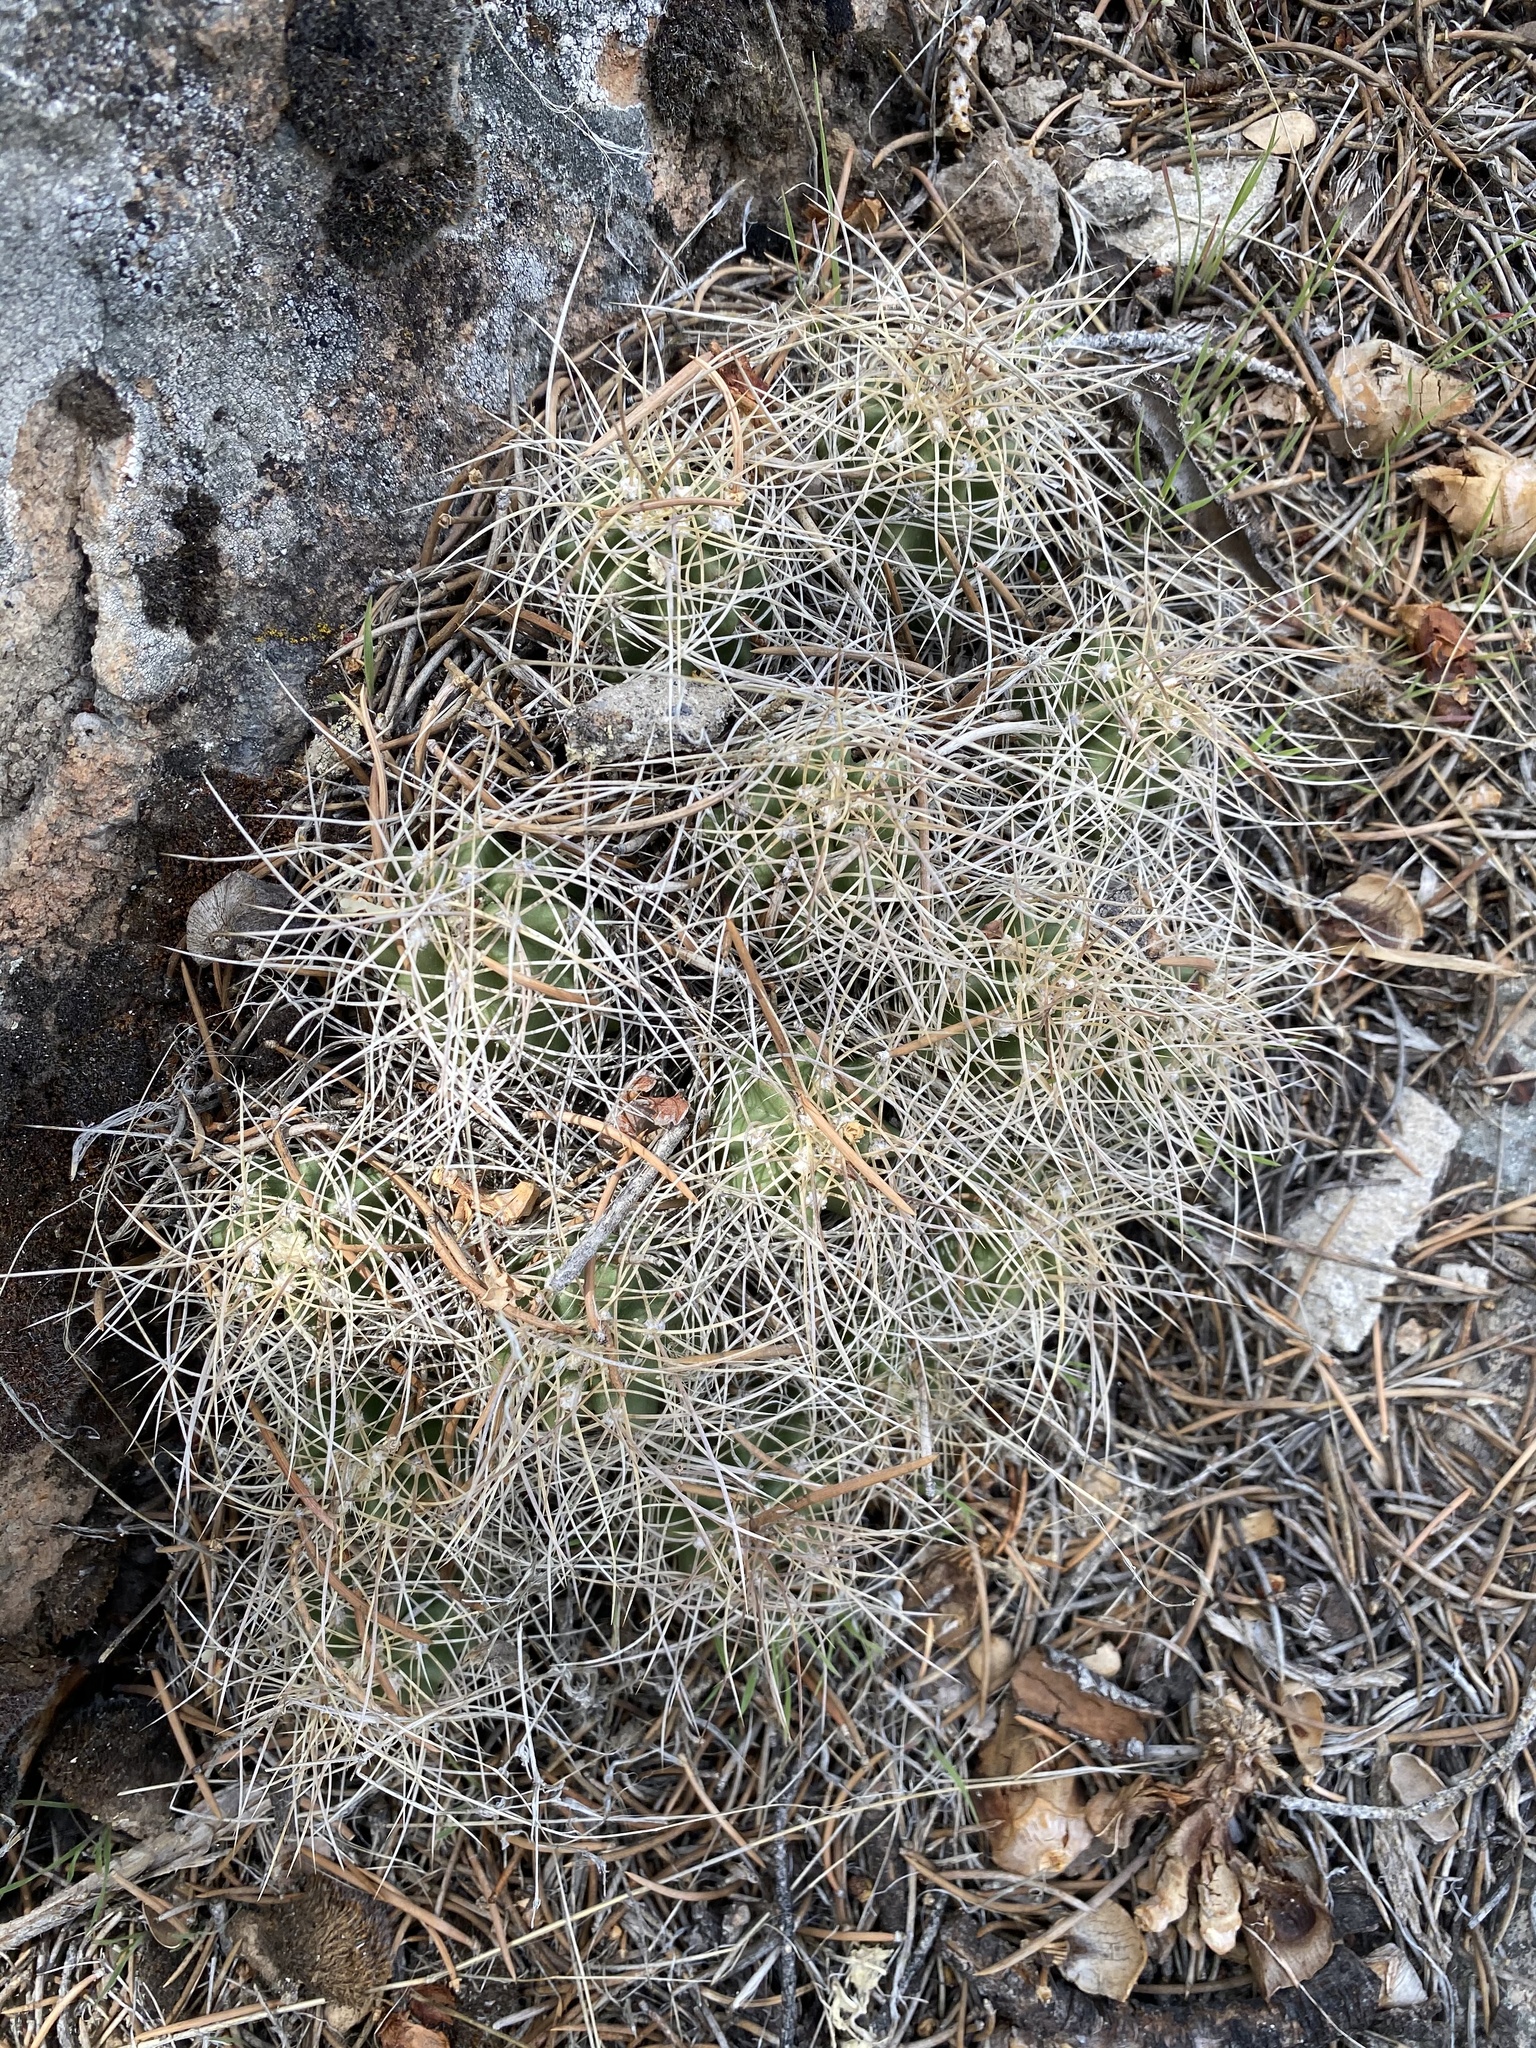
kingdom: Plantae
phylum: Tracheophyta
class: Magnoliopsida
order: Caryophyllales
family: Cactaceae
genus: Echinocereus
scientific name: Echinocereus triglochidiatus
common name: Claretcup hedgehog
